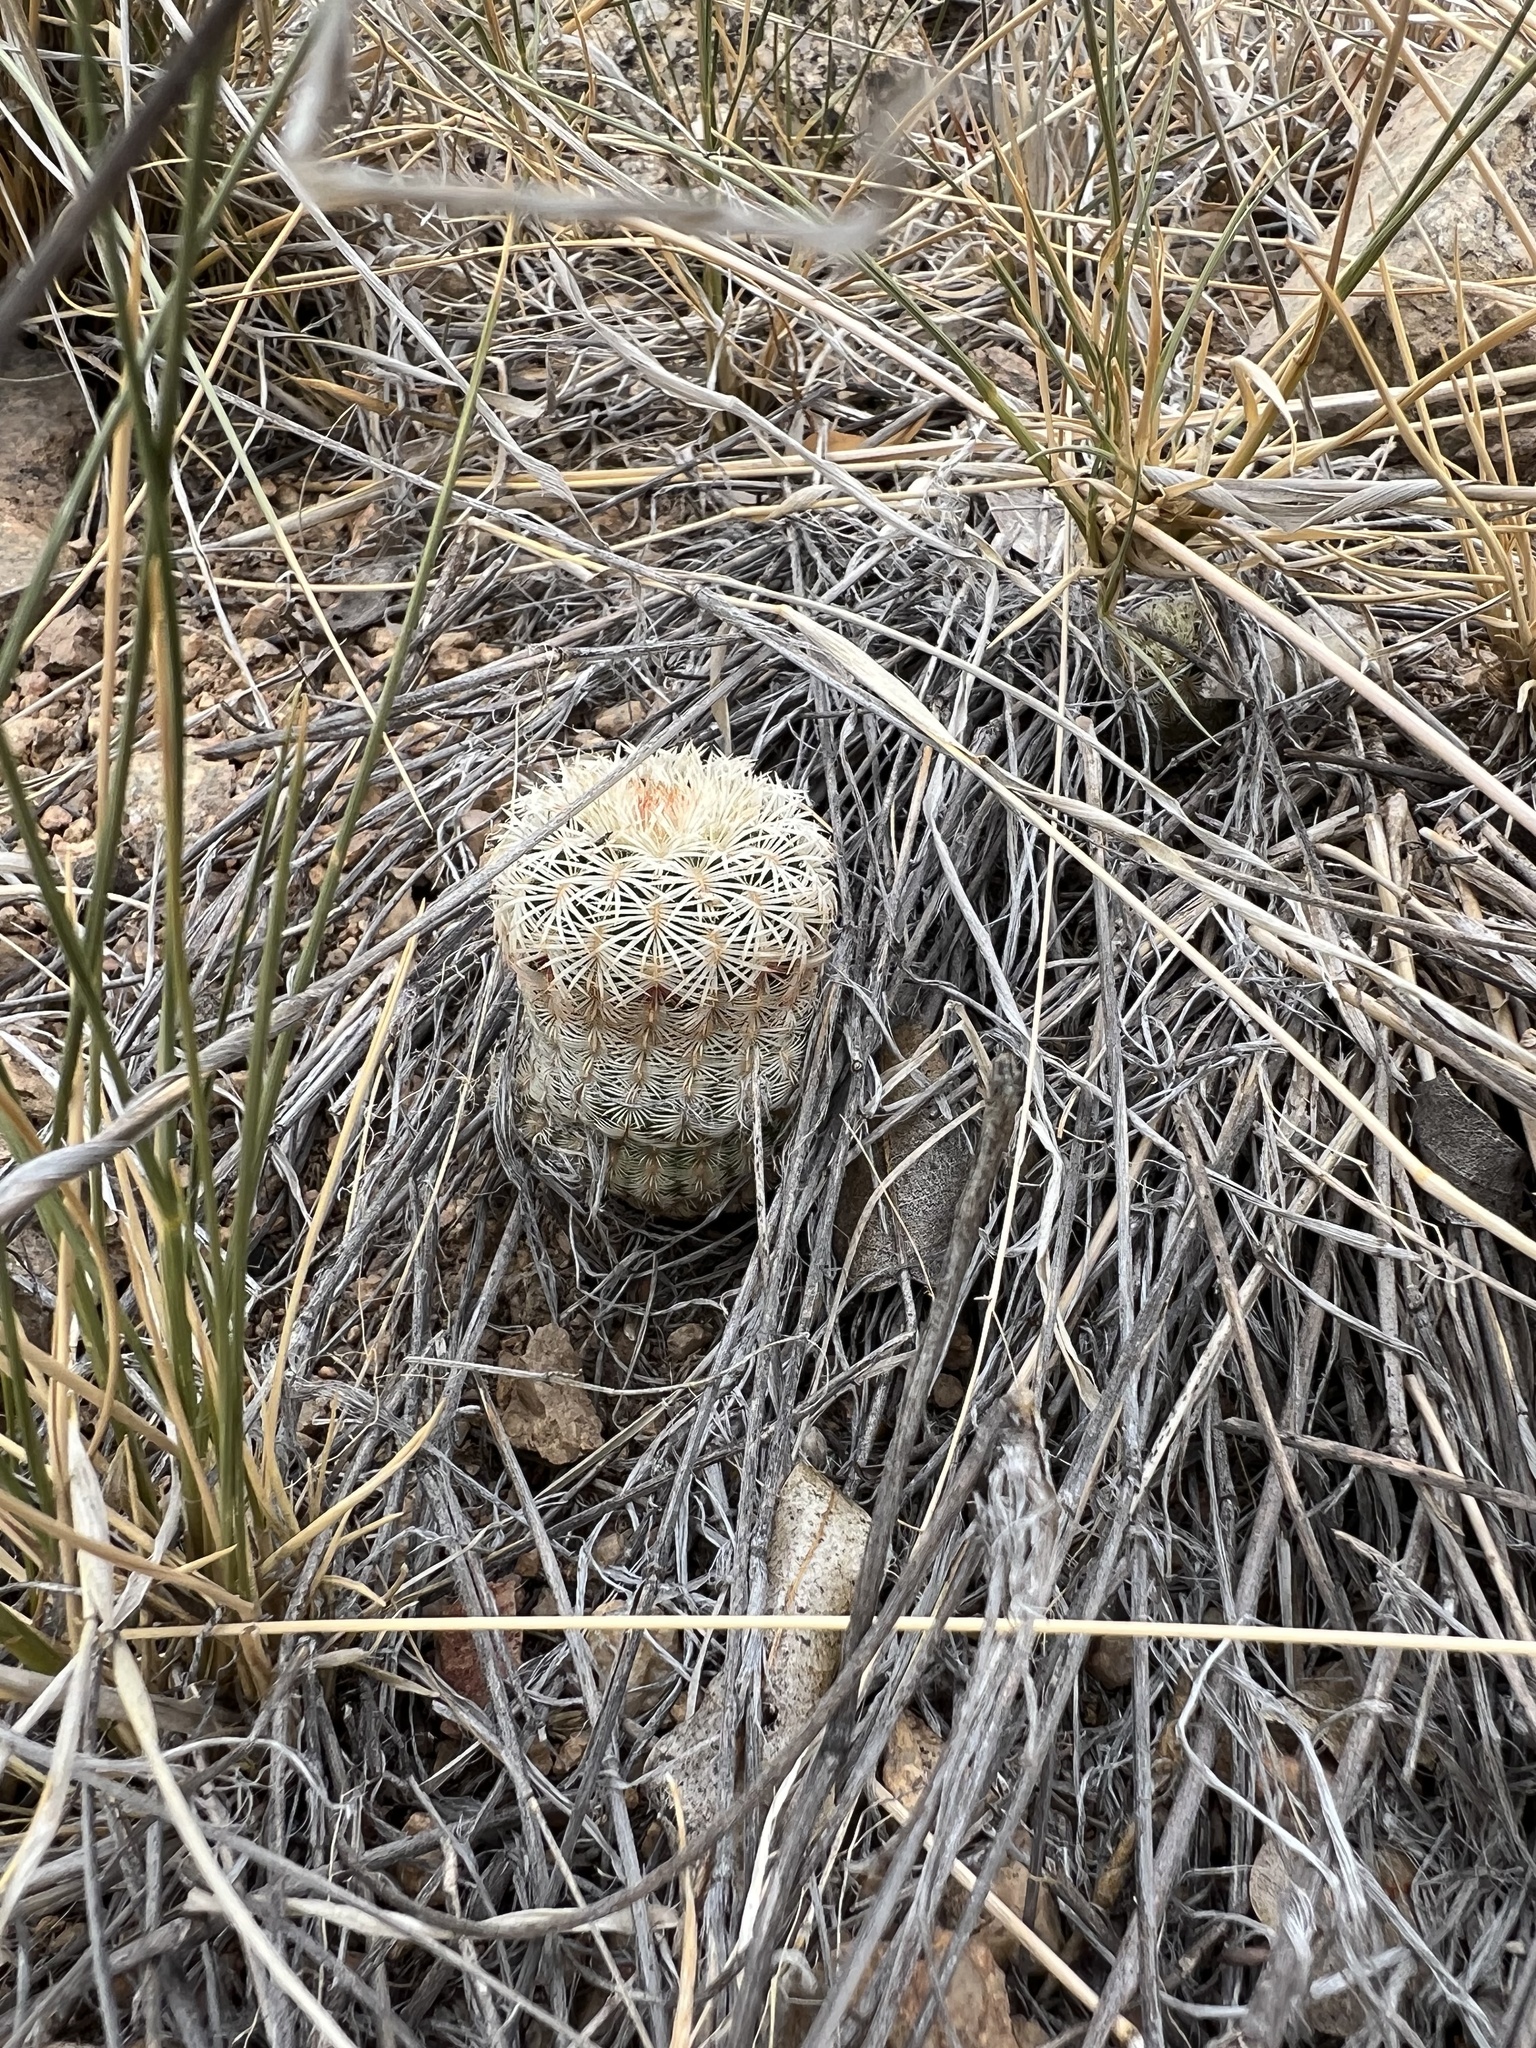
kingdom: Plantae
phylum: Tracheophyta
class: Magnoliopsida
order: Caryophyllales
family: Cactaceae
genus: Echinocereus
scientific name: Echinocereus rigidissimus
